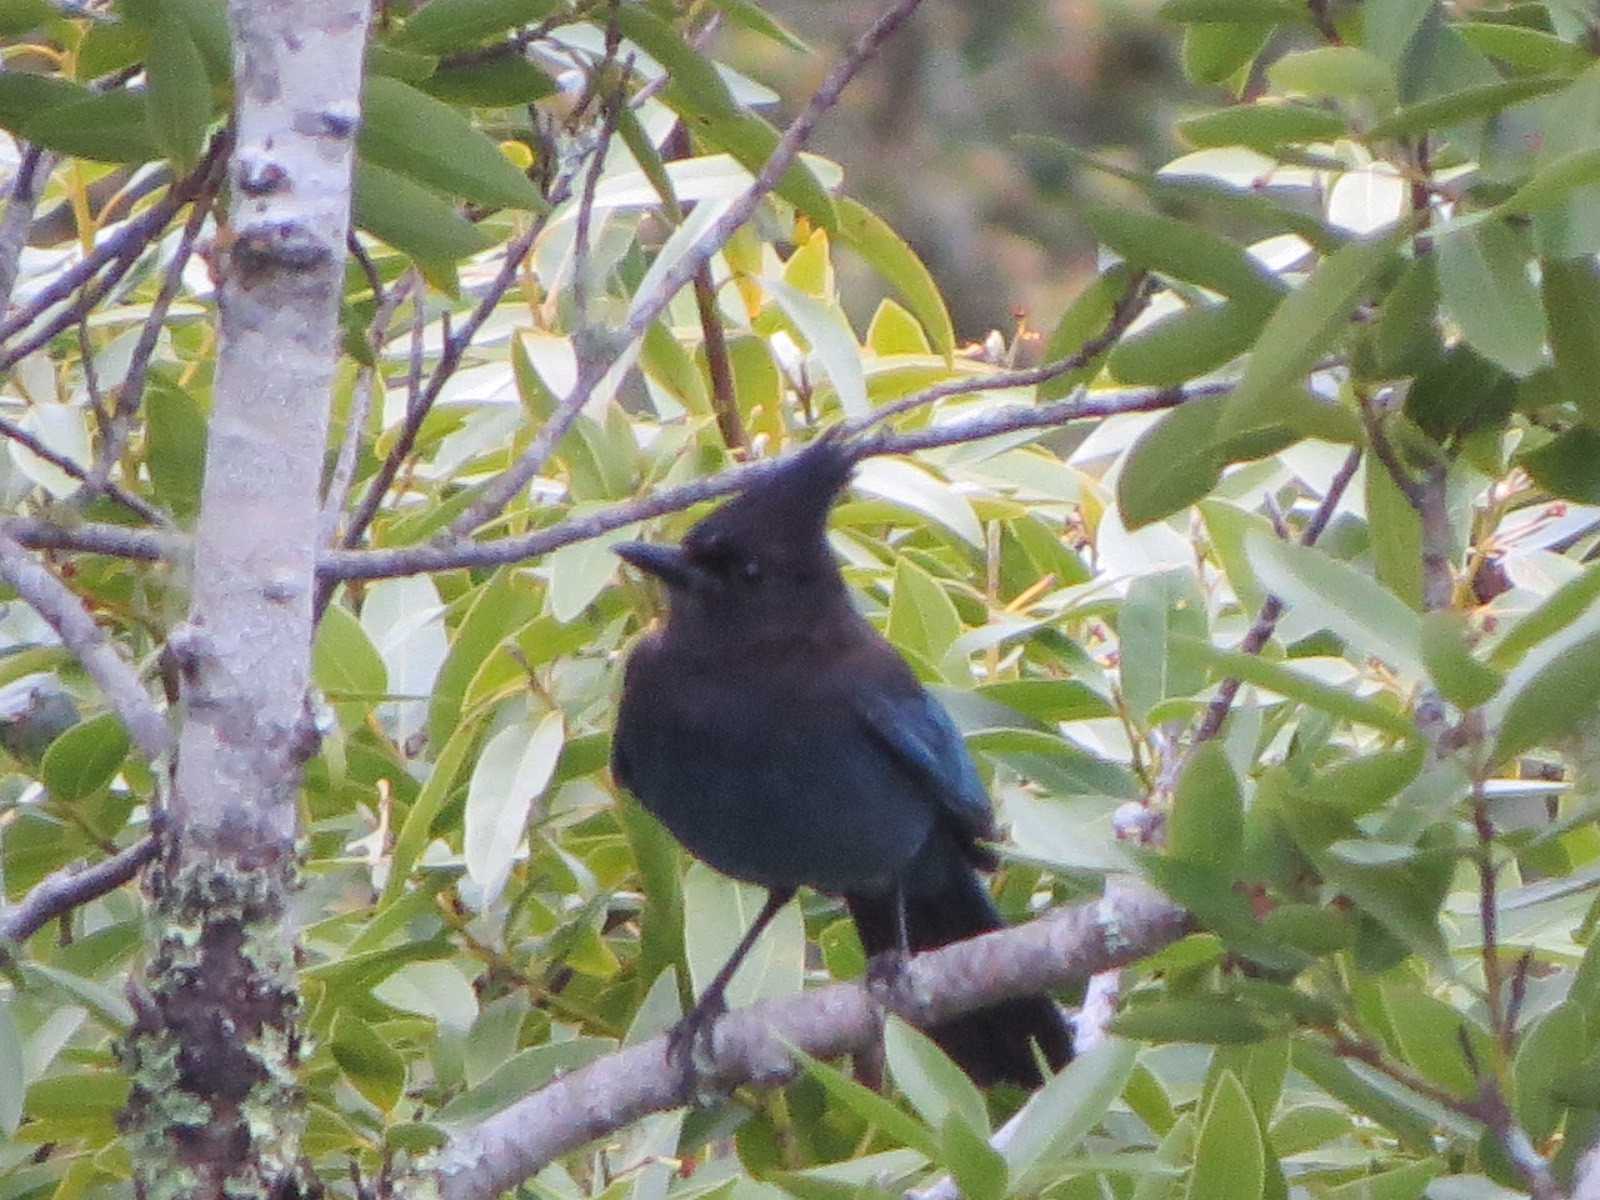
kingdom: Animalia
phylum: Chordata
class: Aves
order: Passeriformes
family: Corvidae
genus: Cyanocitta
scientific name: Cyanocitta stelleri
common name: Steller's jay
